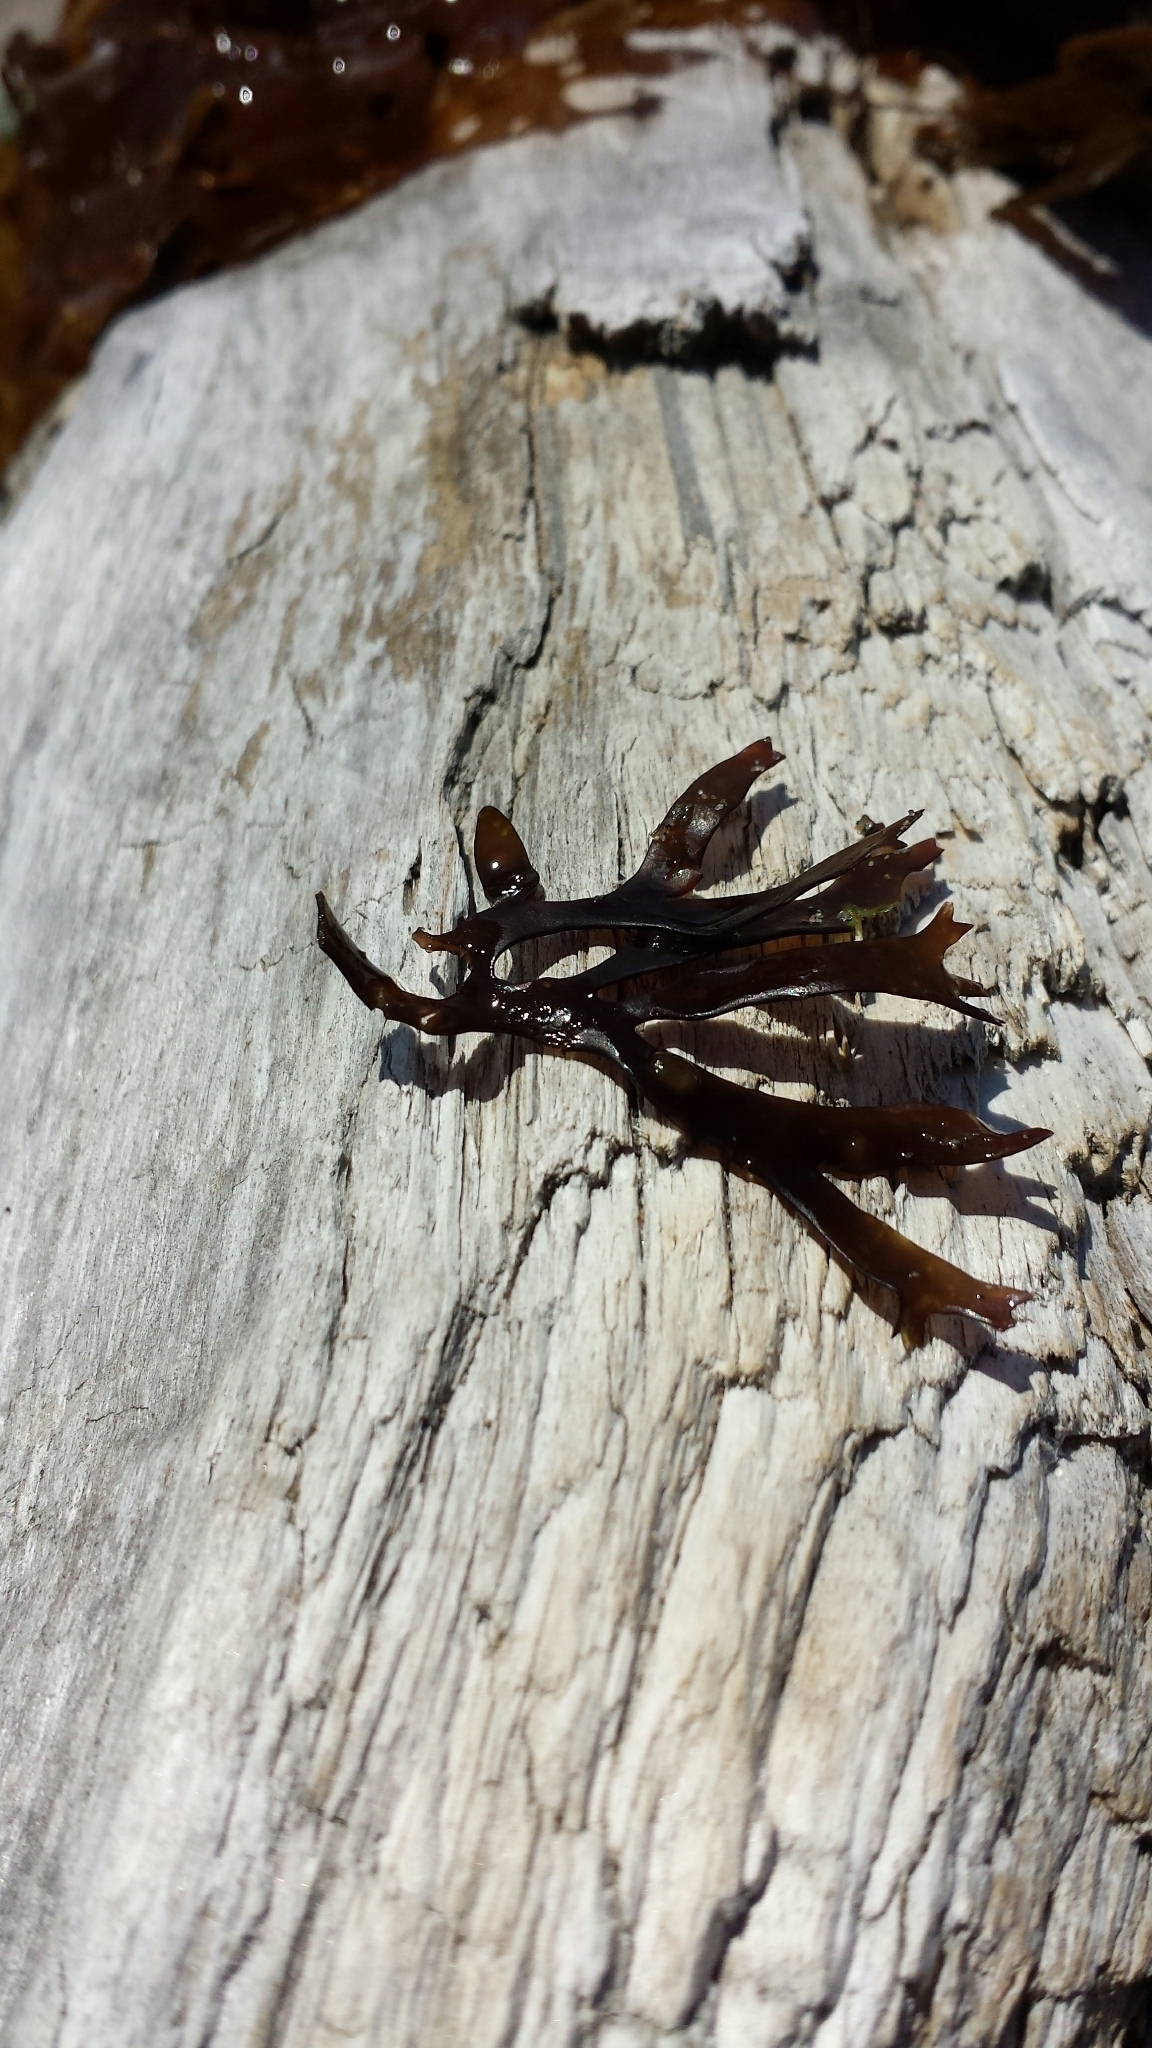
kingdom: Plantae
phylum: Rhodophyta
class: Florideophyceae
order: Gigartinales
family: Gigartinaceae
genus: Chondrus
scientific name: Chondrus crispus
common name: Carrageen
